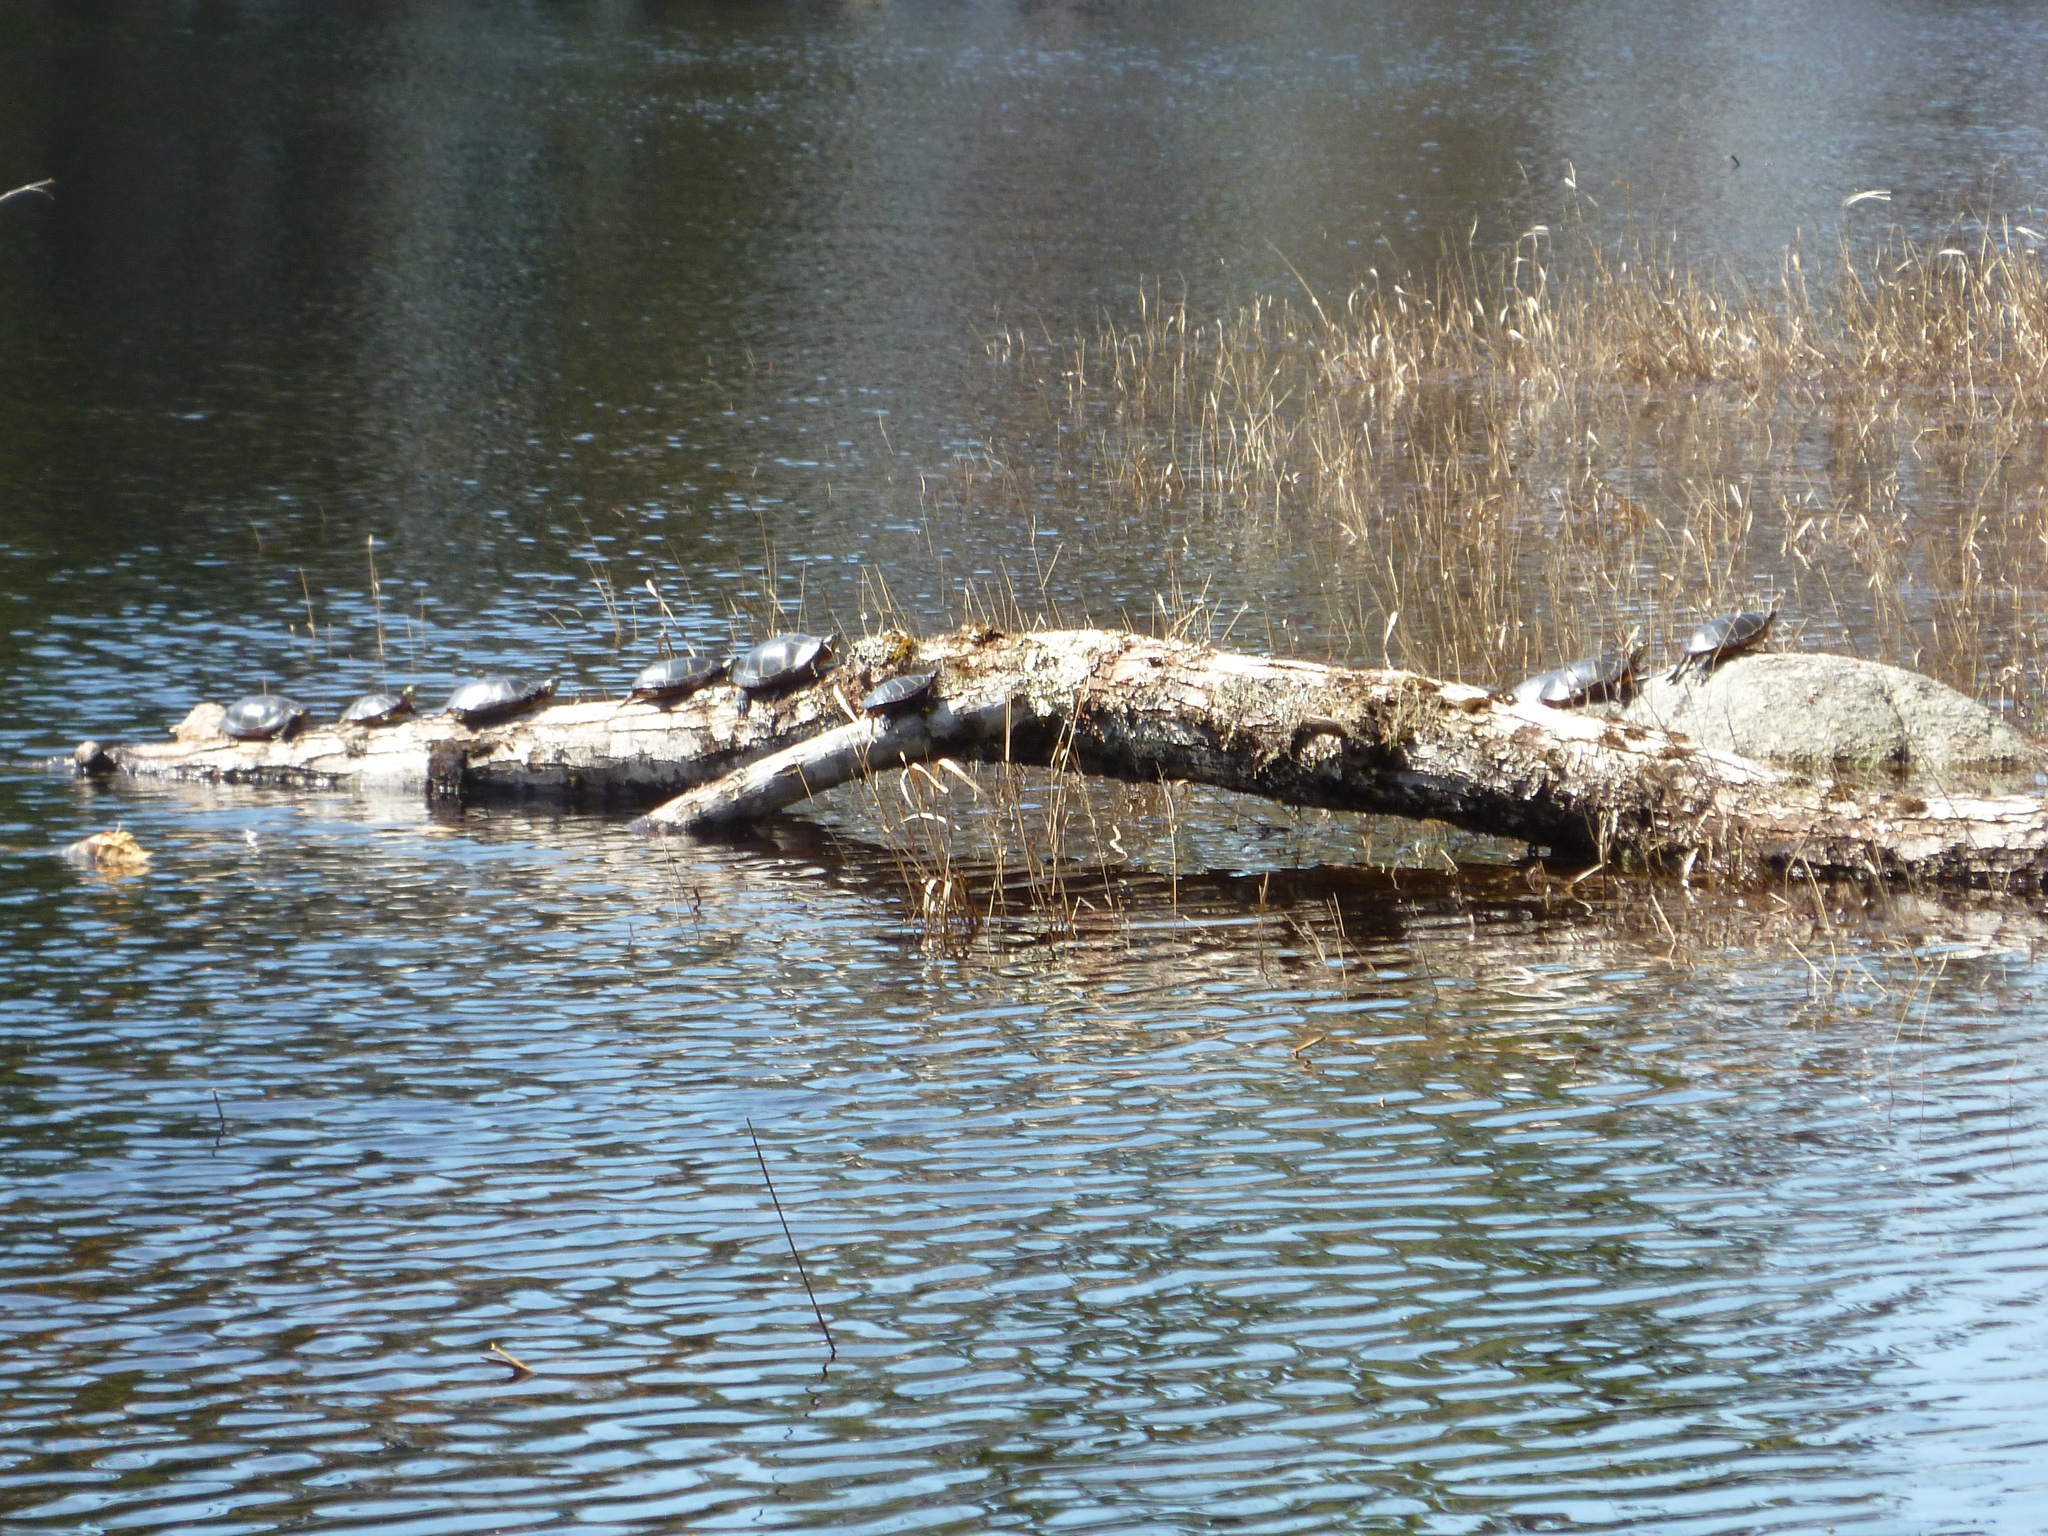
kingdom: Animalia
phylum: Chordata
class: Testudines
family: Emydidae
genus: Chrysemys
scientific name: Chrysemys picta
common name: Painted turtle
